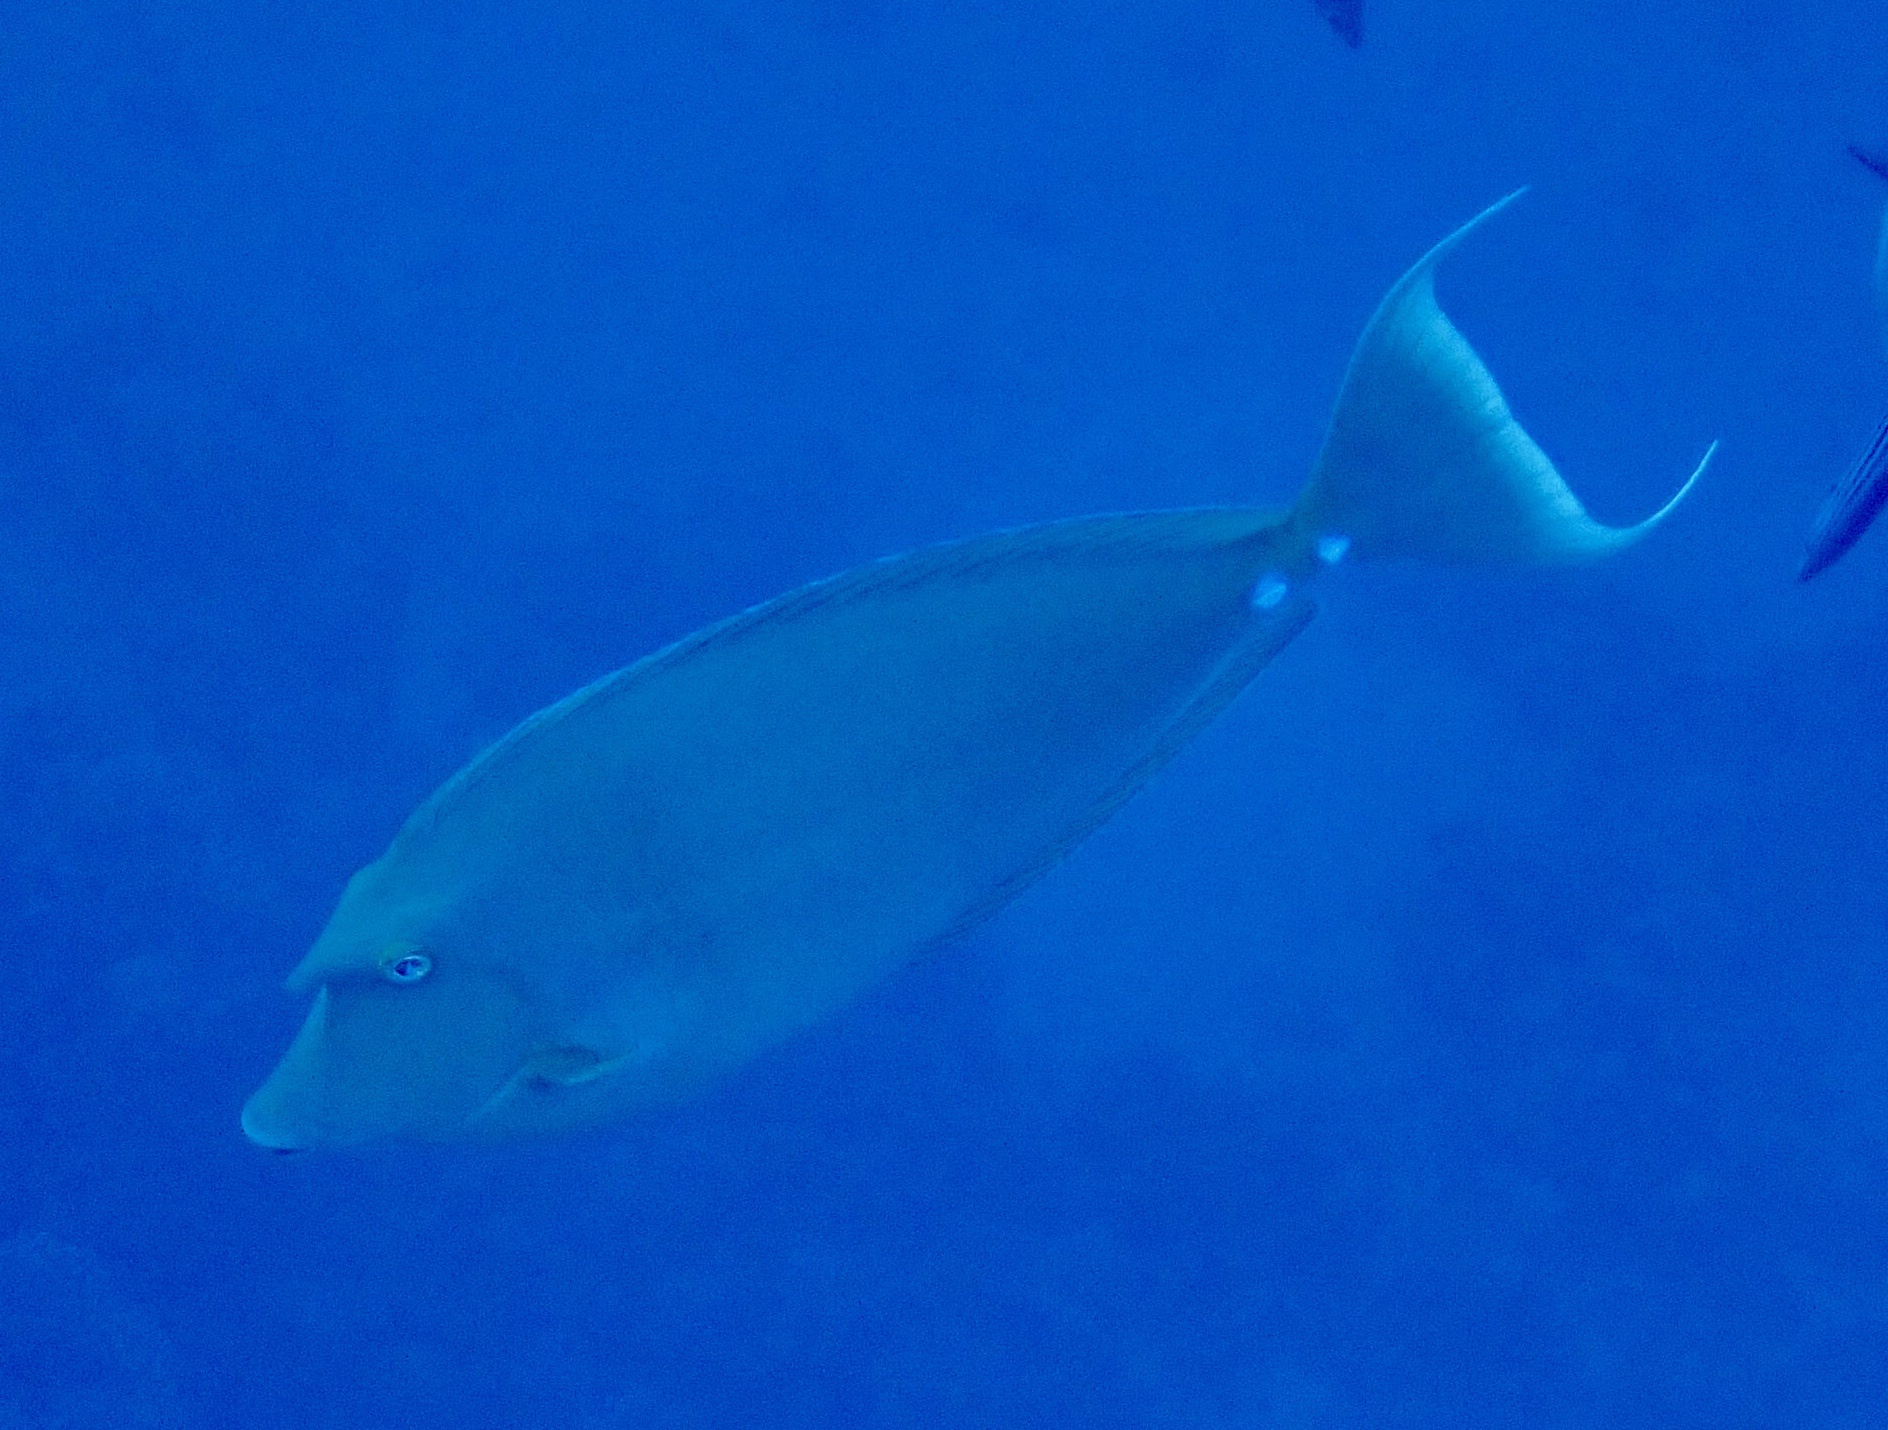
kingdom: Animalia
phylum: Chordata
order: Perciformes
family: Acanthuridae
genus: Naso
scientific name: Naso unicornis
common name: Bluespine unicornfish
